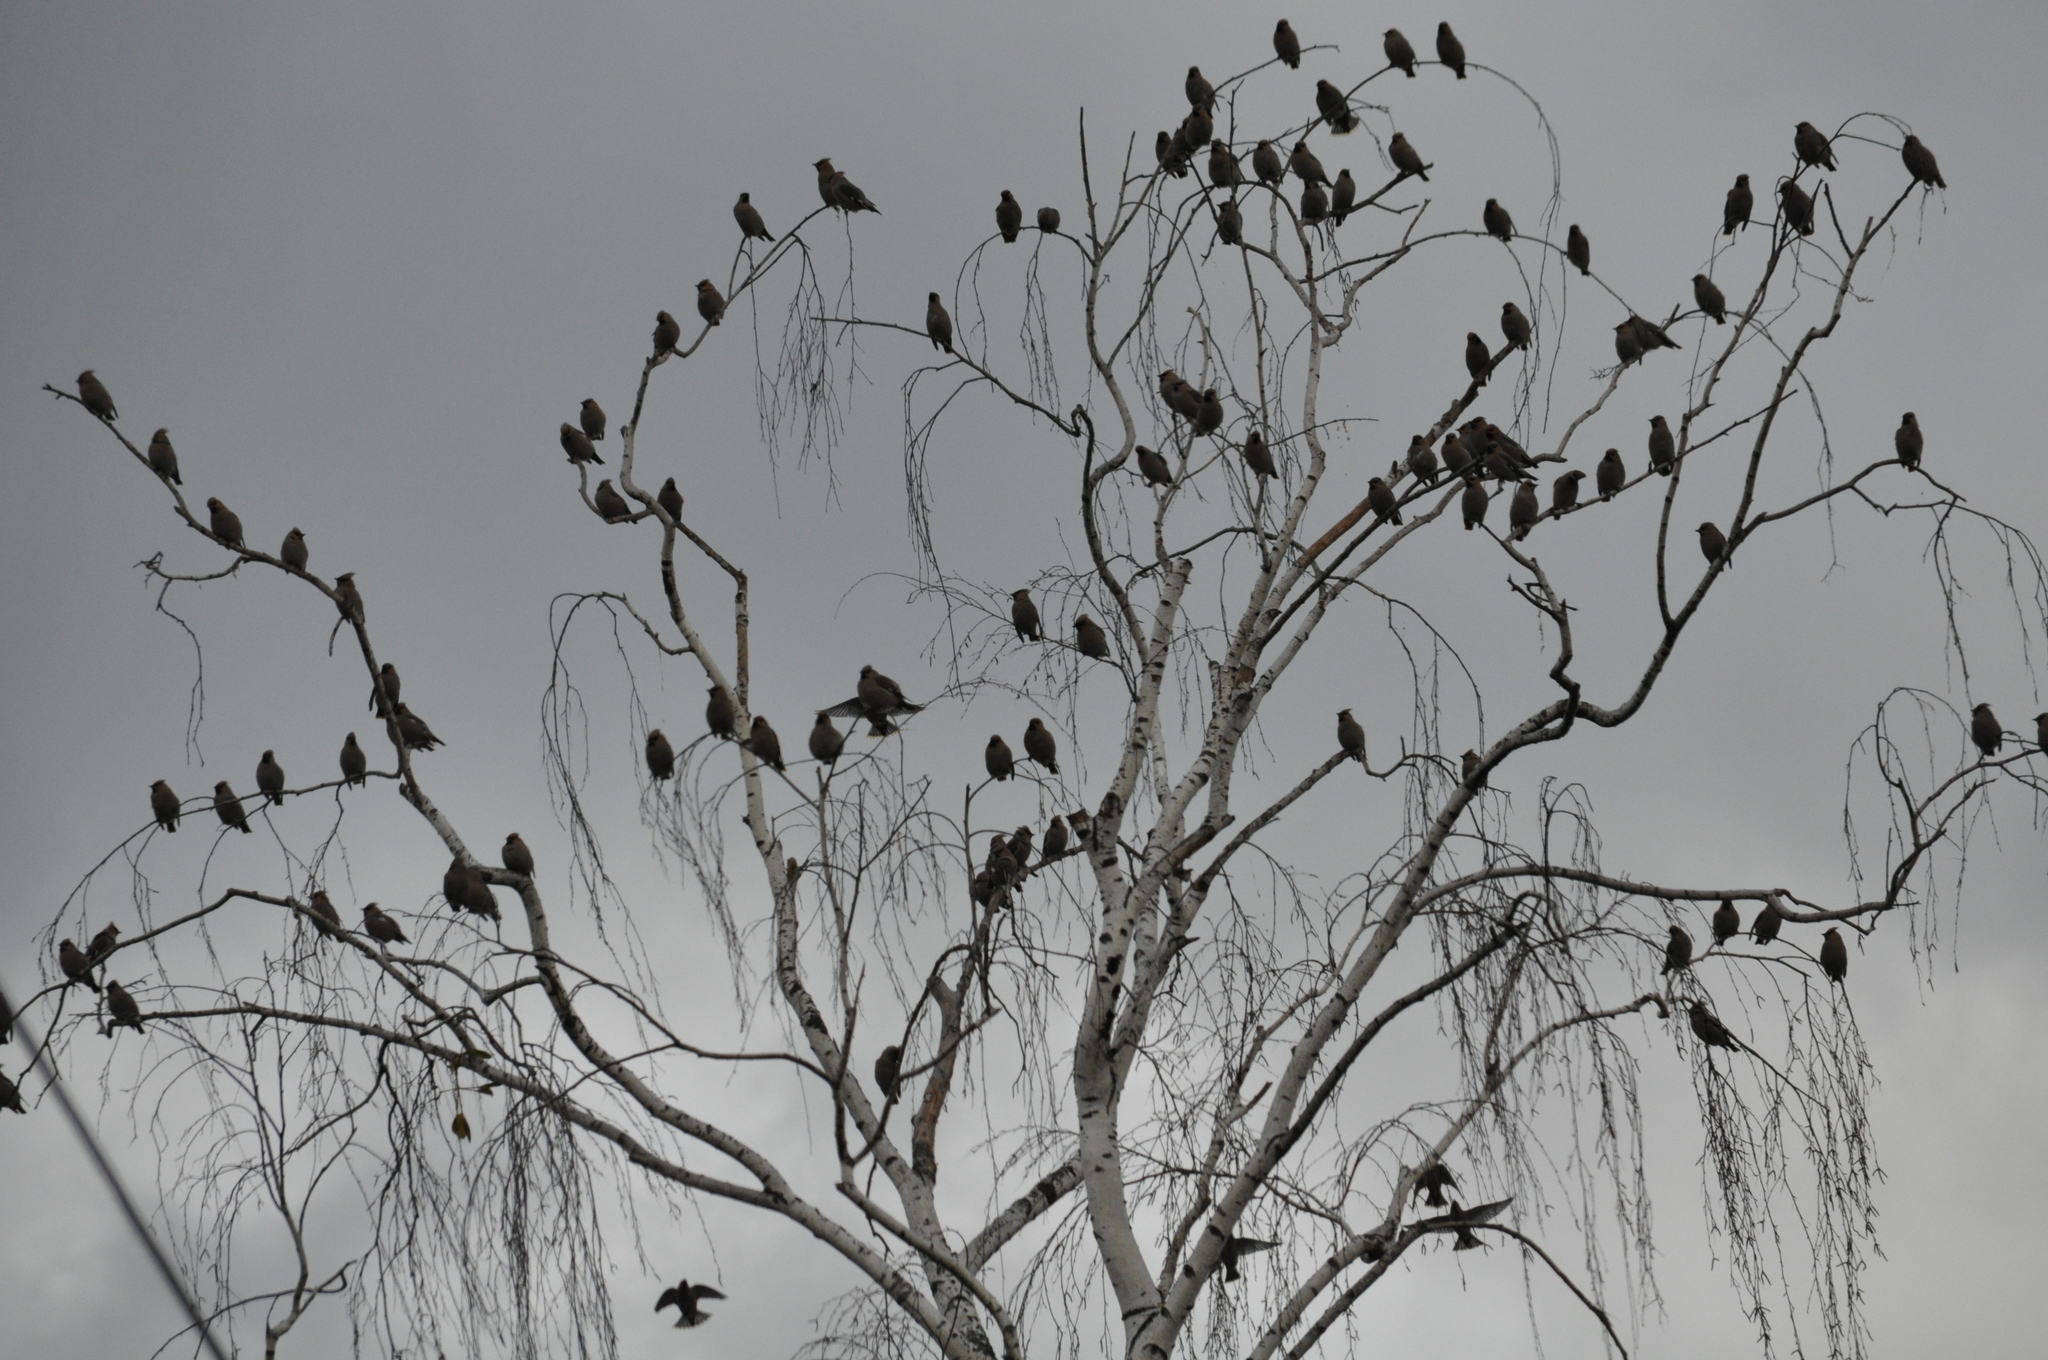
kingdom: Animalia
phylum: Chordata
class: Aves
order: Passeriformes
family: Bombycillidae
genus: Bombycilla
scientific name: Bombycilla garrulus
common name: Bohemian waxwing
